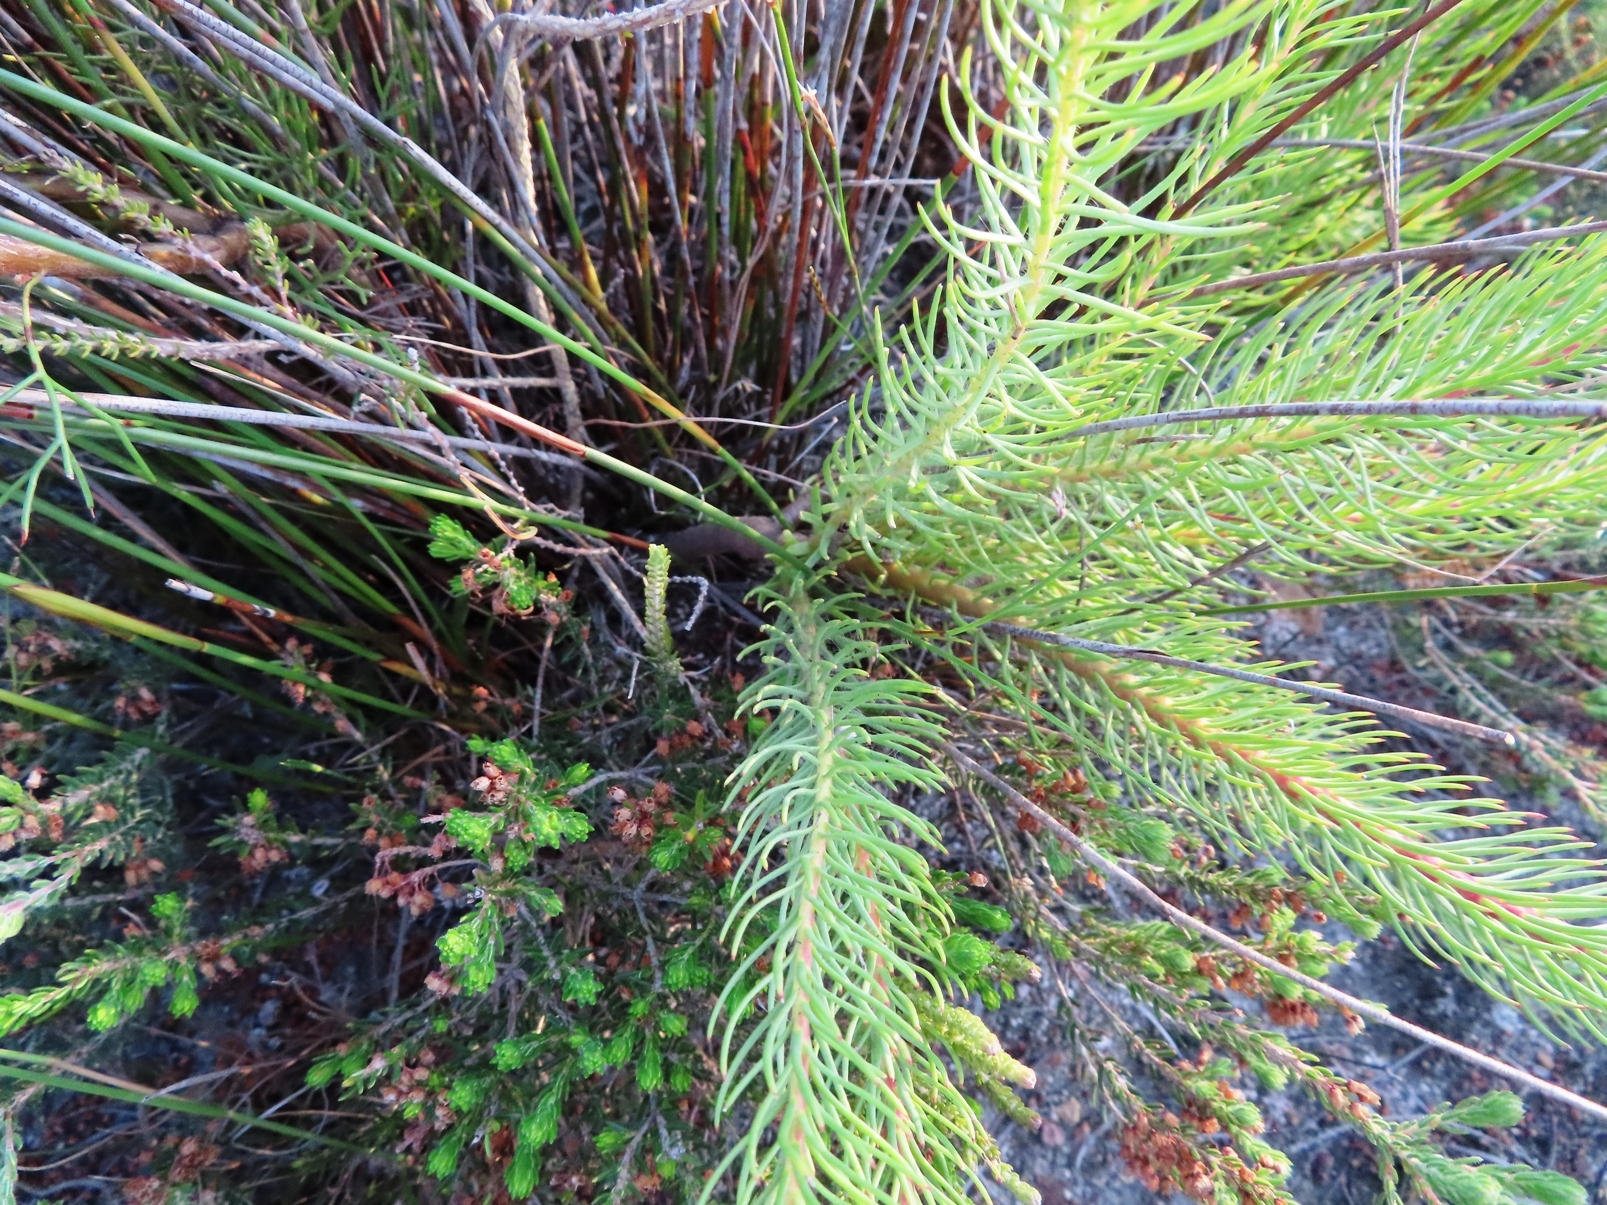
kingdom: Plantae
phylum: Tracheophyta
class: Magnoliopsida
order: Proteales
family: Proteaceae
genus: Leucadendron
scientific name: Leucadendron laxum
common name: Bredasdorp conebush
